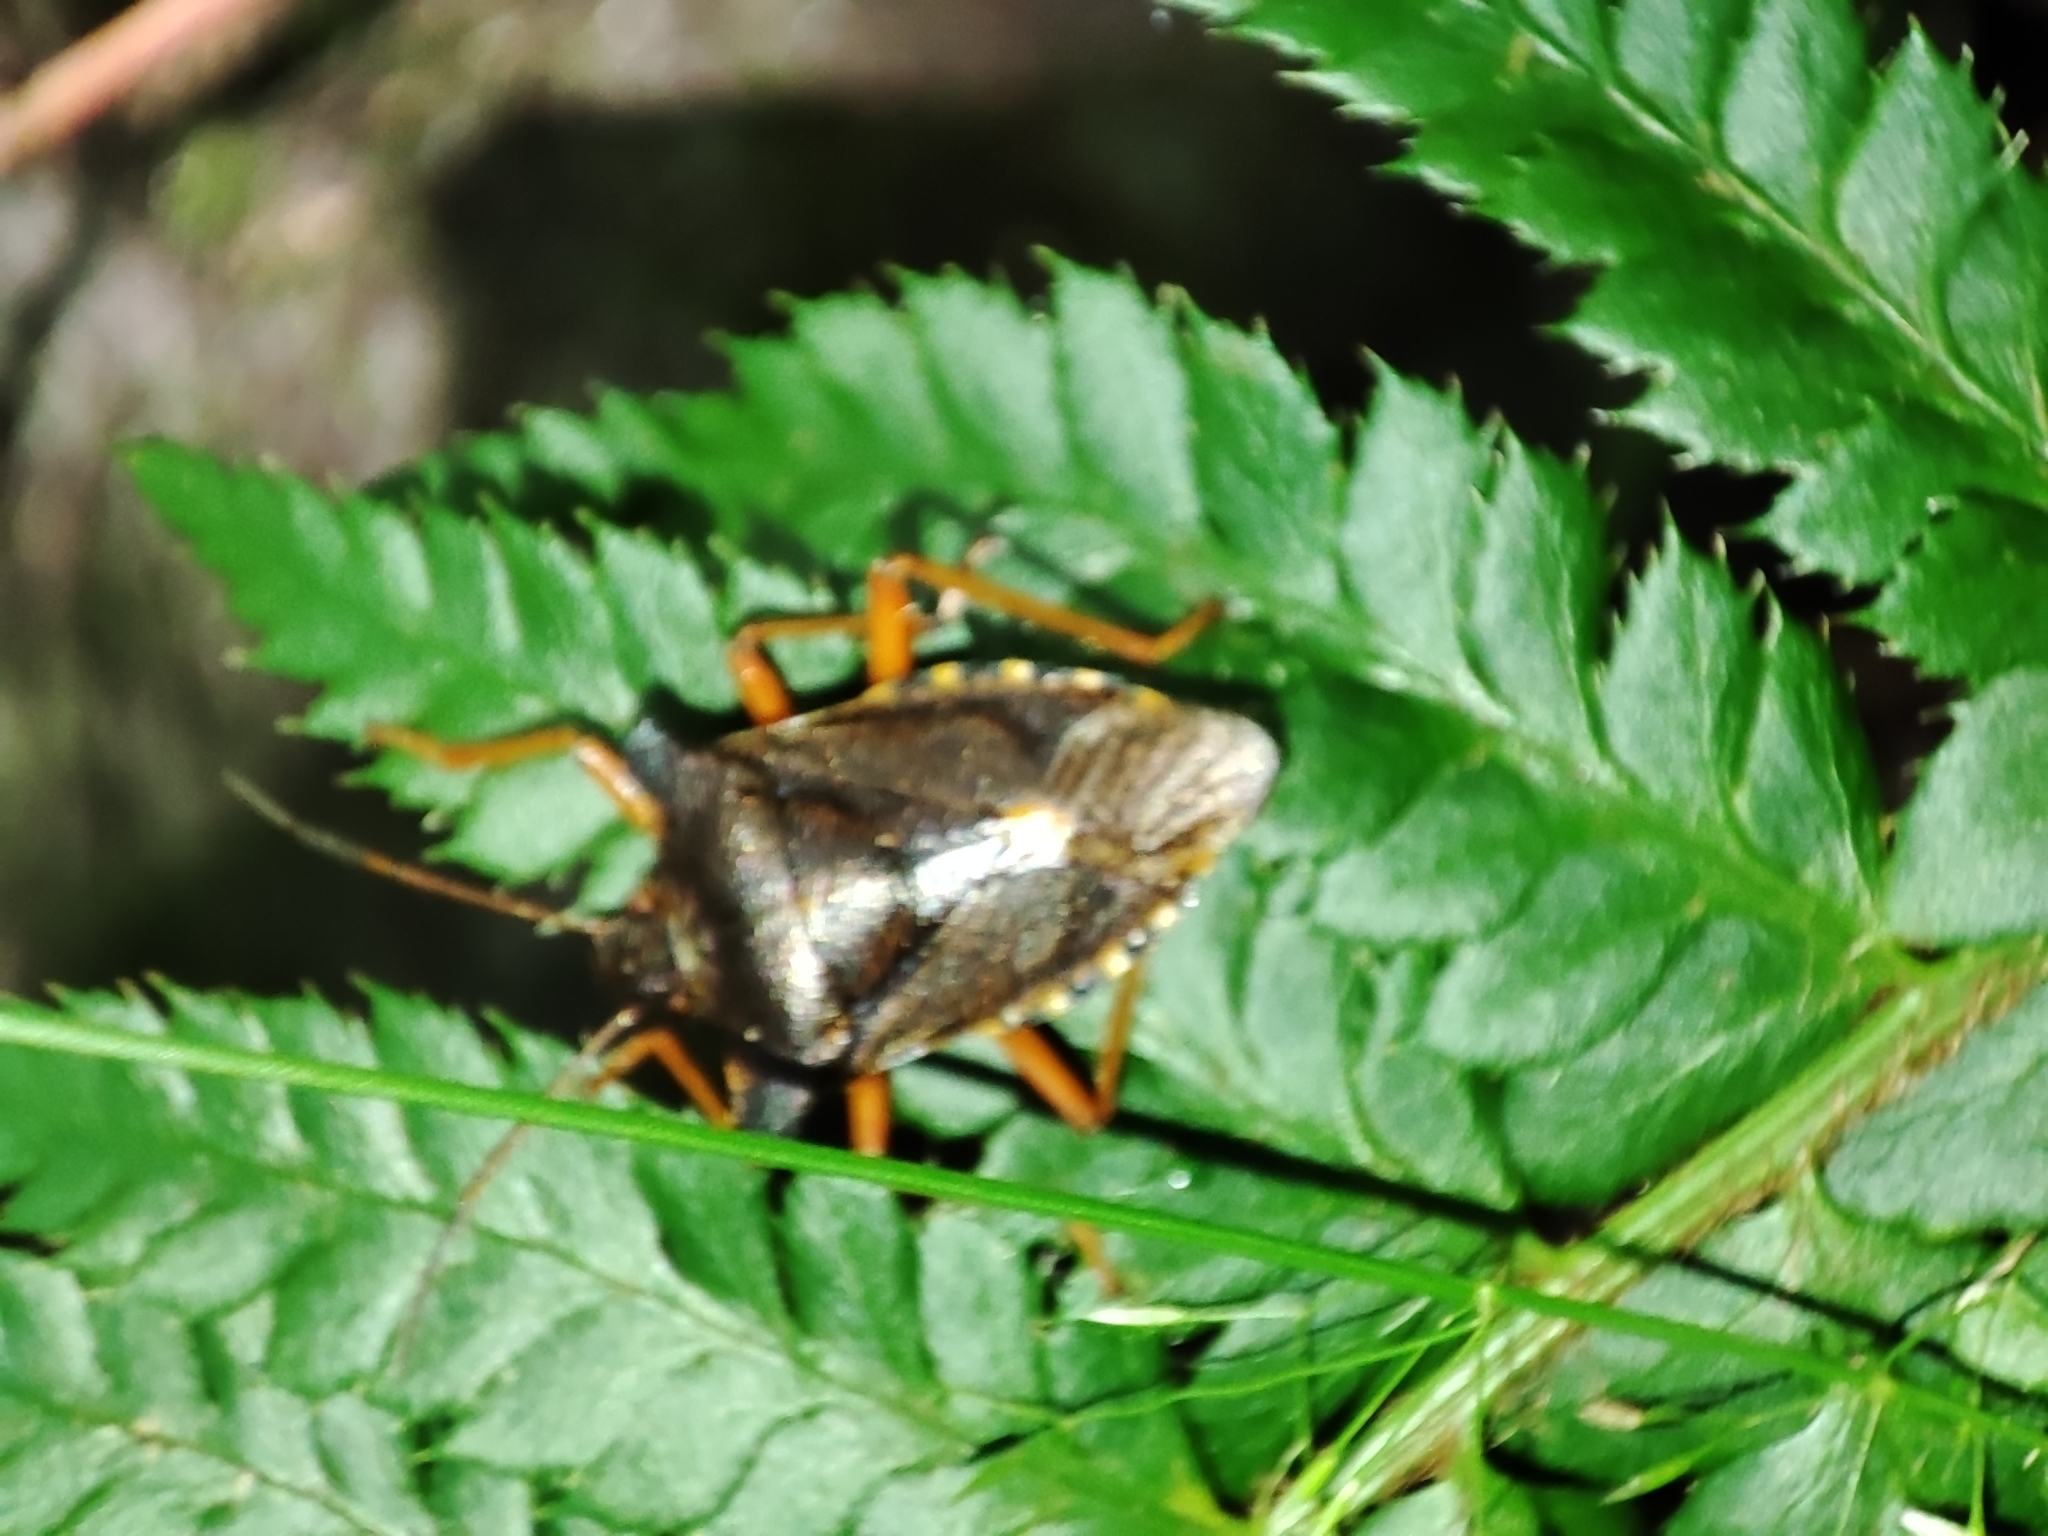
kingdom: Animalia
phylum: Arthropoda
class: Insecta
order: Hemiptera
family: Pentatomidae
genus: Pentatoma
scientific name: Pentatoma rufipes
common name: Forest bug
